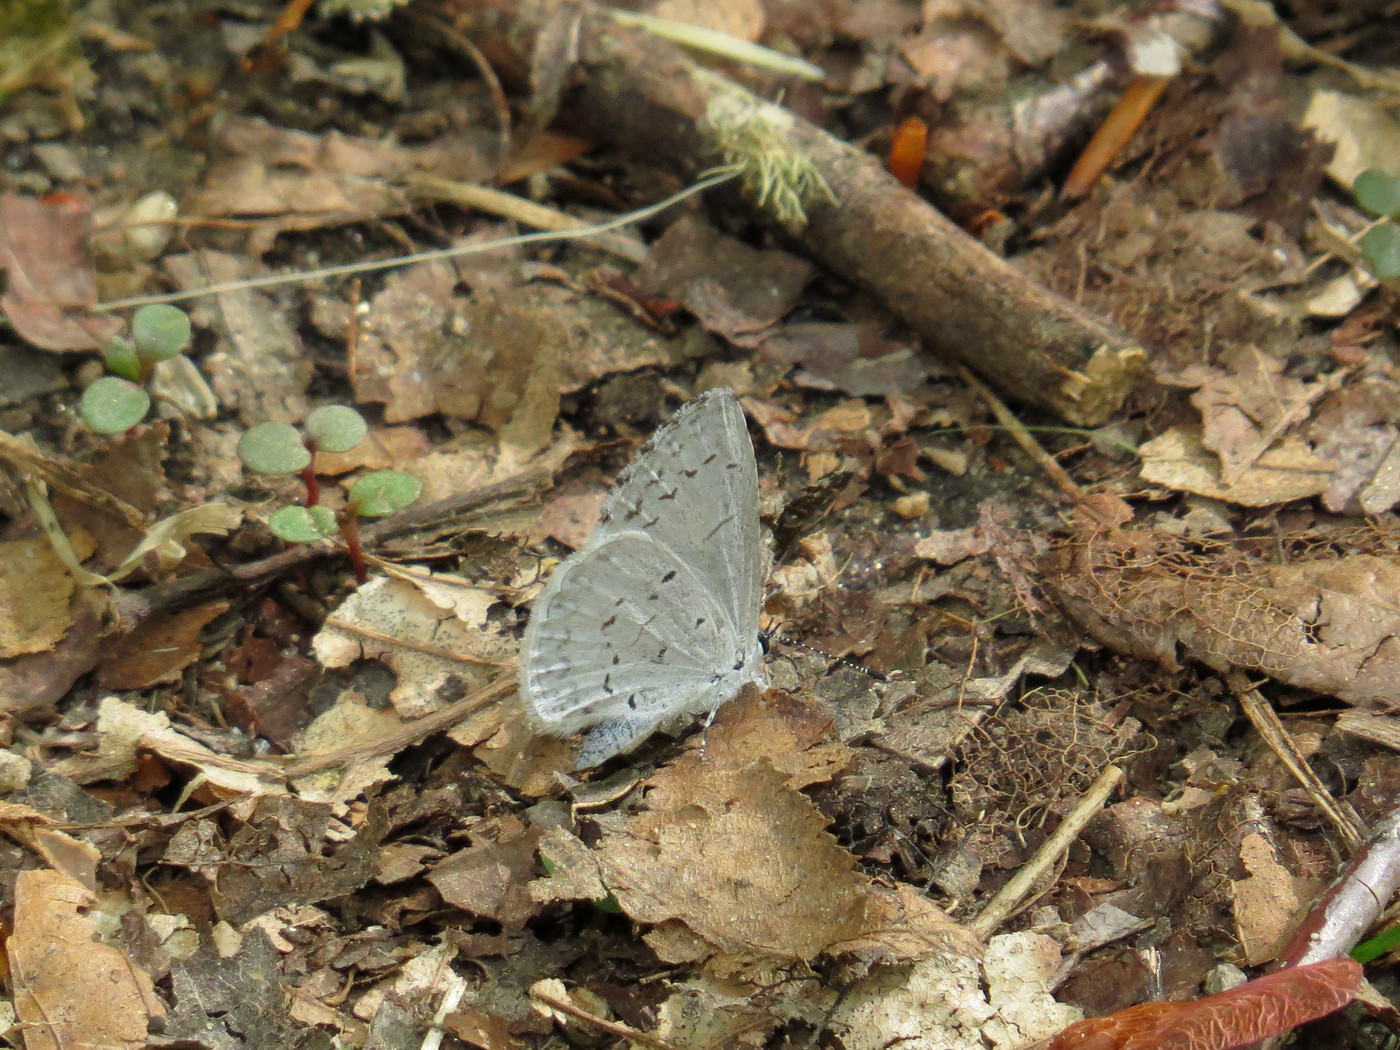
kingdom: Animalia
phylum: Arthropoda
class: Insecta
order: Lepidoptera
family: Lycaenidae
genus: Cyaniris
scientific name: Cyaniris neglecta
